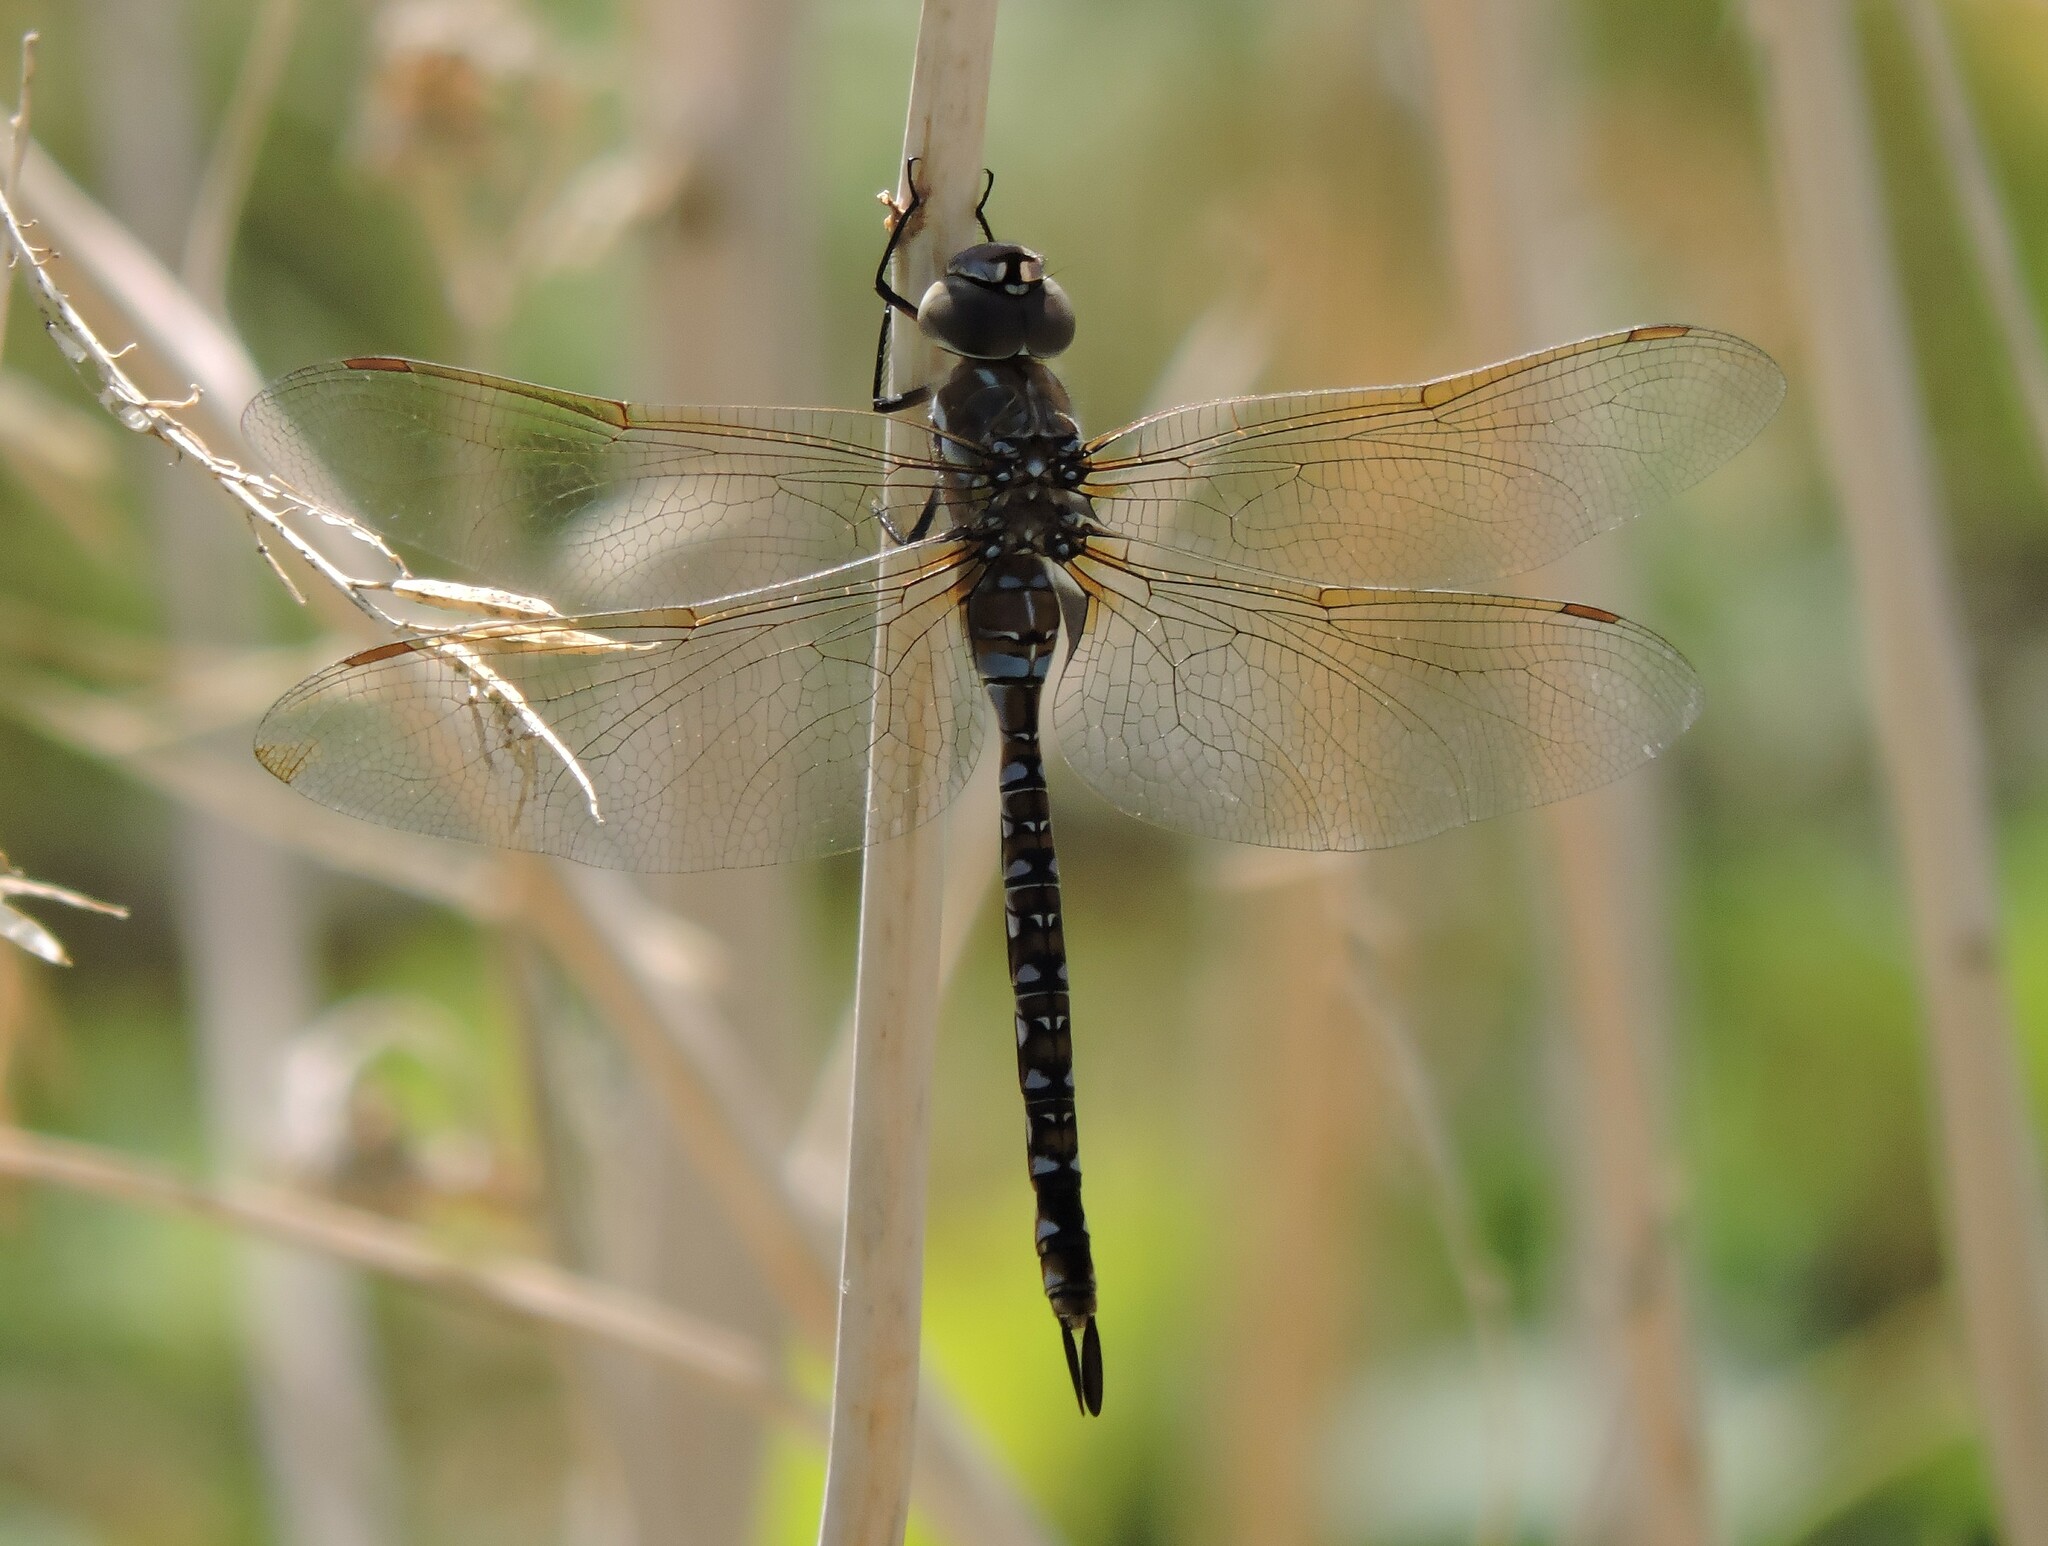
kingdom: Animalia
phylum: Arthropoda
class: Insecta
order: Odonata
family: Aeshnidae
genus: Rhionaeschna
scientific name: Rhionaeschna multicolor
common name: Blue-eyed darner
